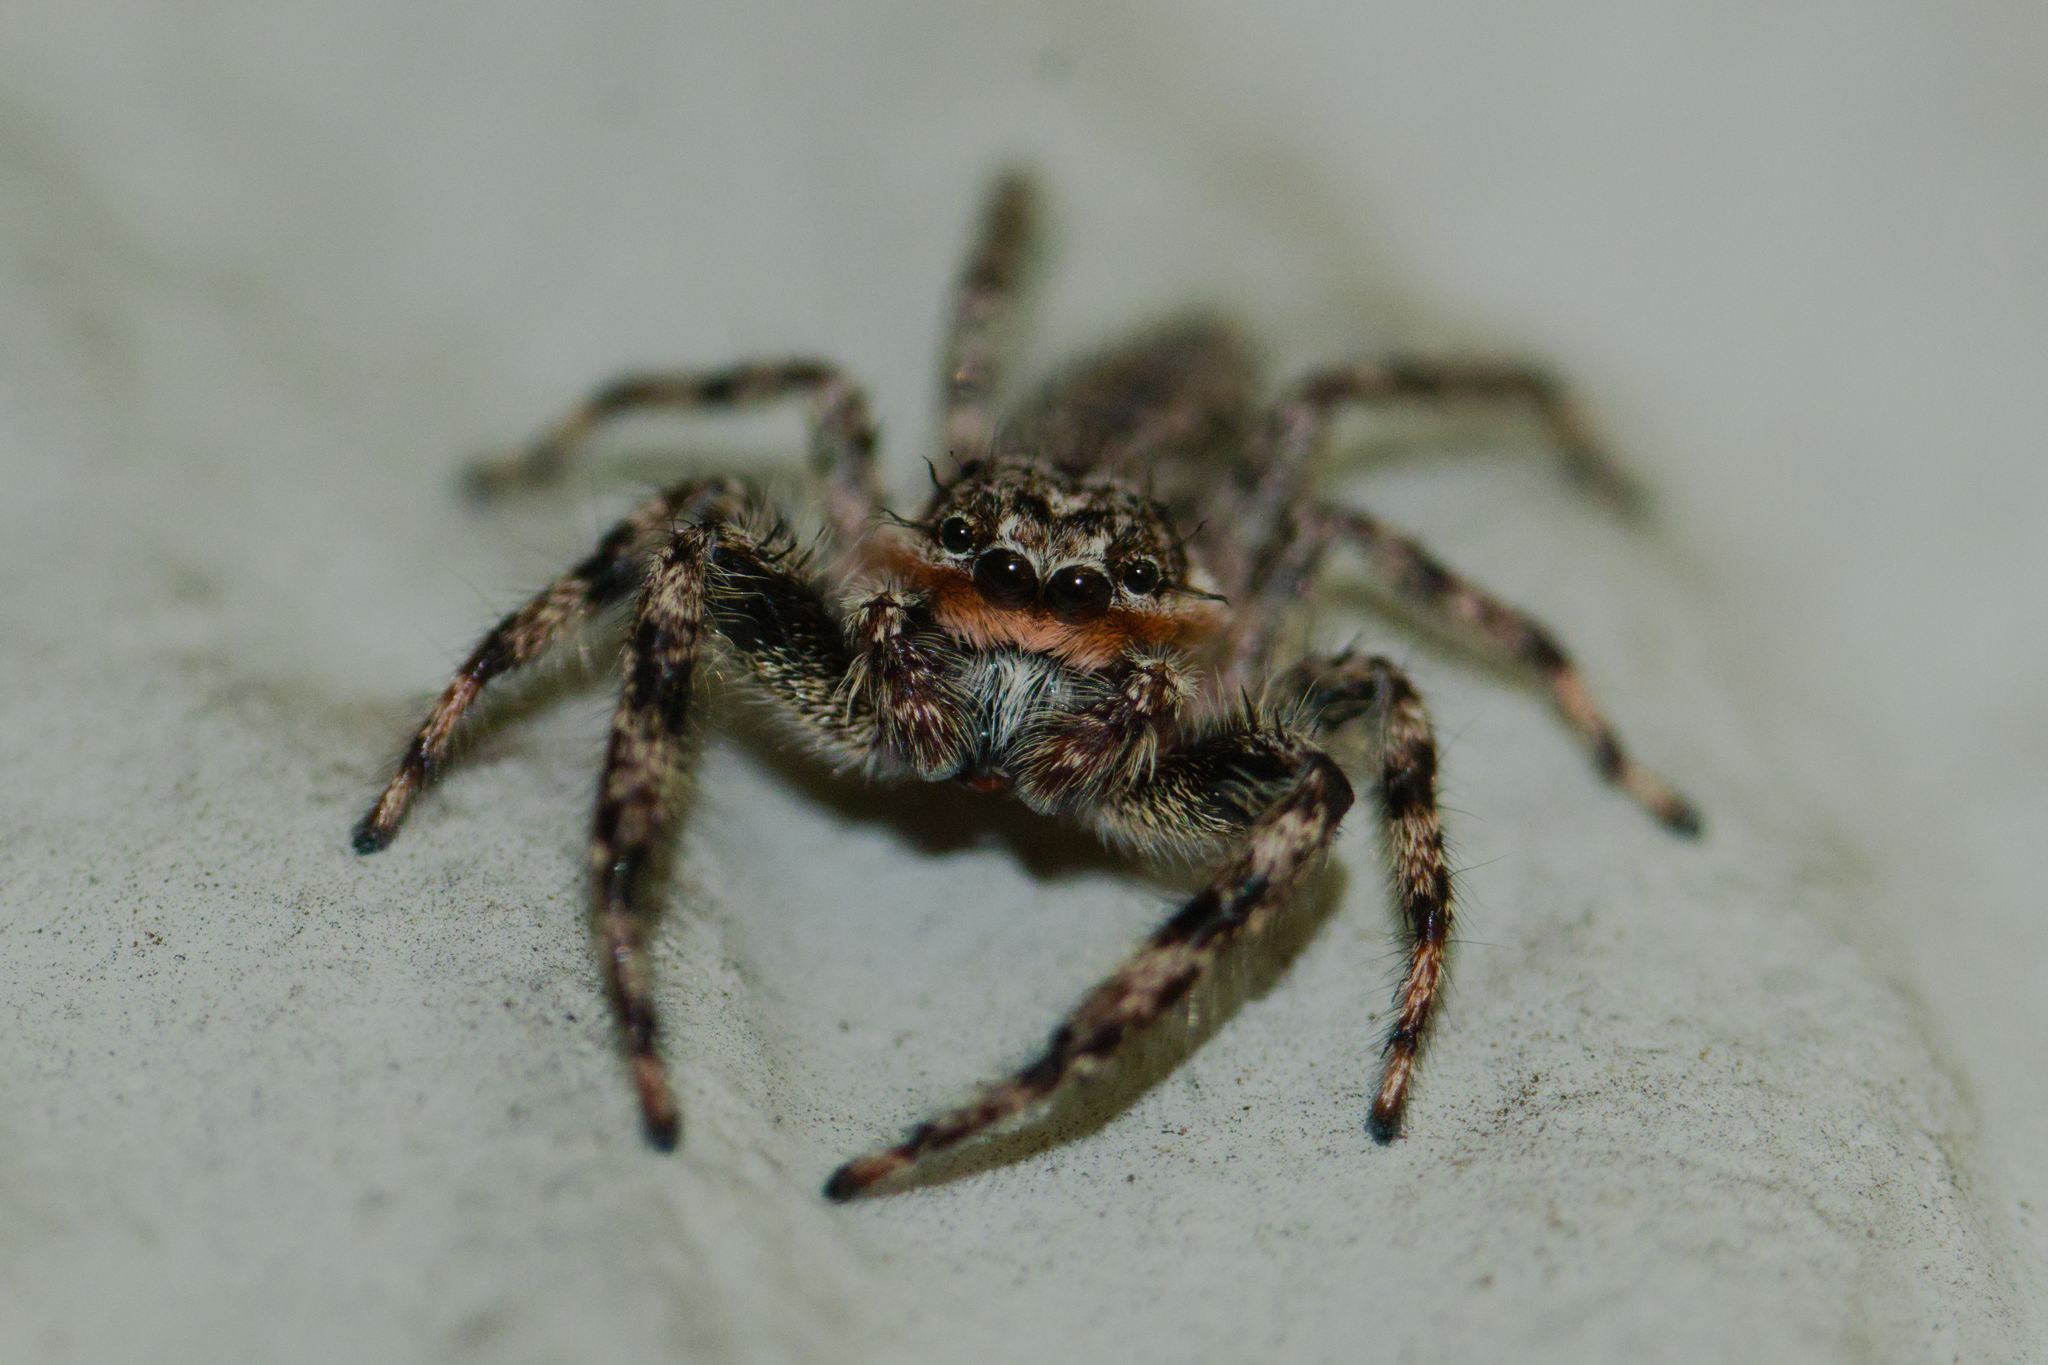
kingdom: Animalia
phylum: Arthropoda
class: Arachnida
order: Araneae
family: Salticidae
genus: Platycryptus
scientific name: Platycryptus undatus
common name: Tan jumping spider
